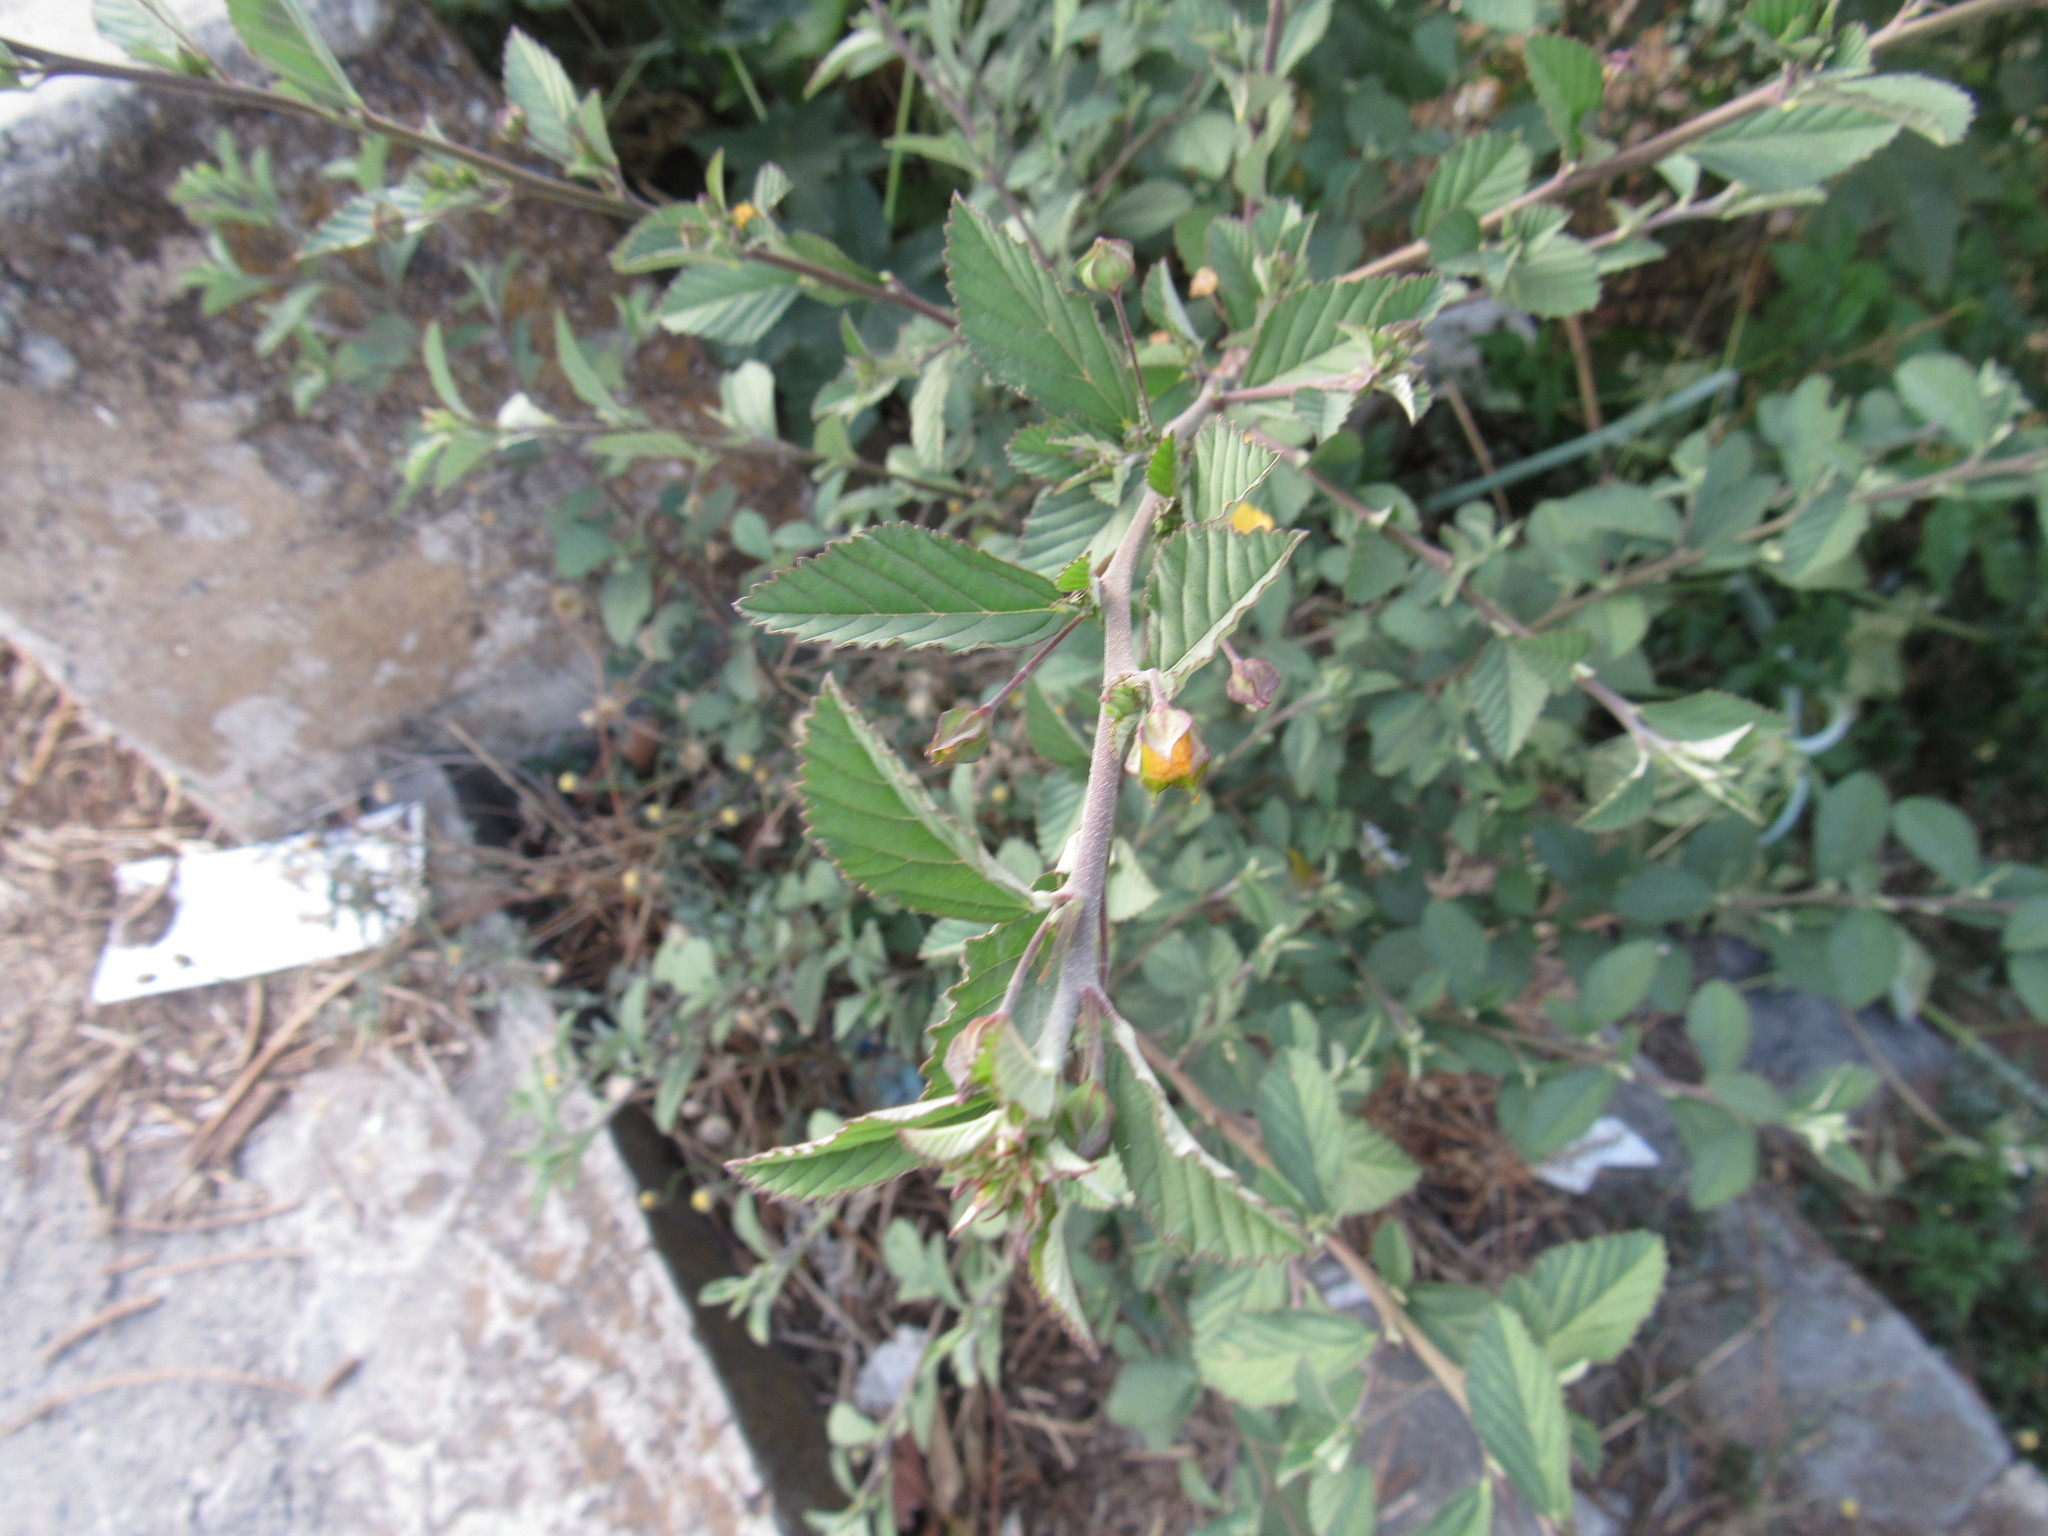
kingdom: Plantae
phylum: Tracheophyta
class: Magnoliopsida
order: Malvales
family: Malvaceae
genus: Sida
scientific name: Sida rhombifolia
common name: Queensland-hemp
